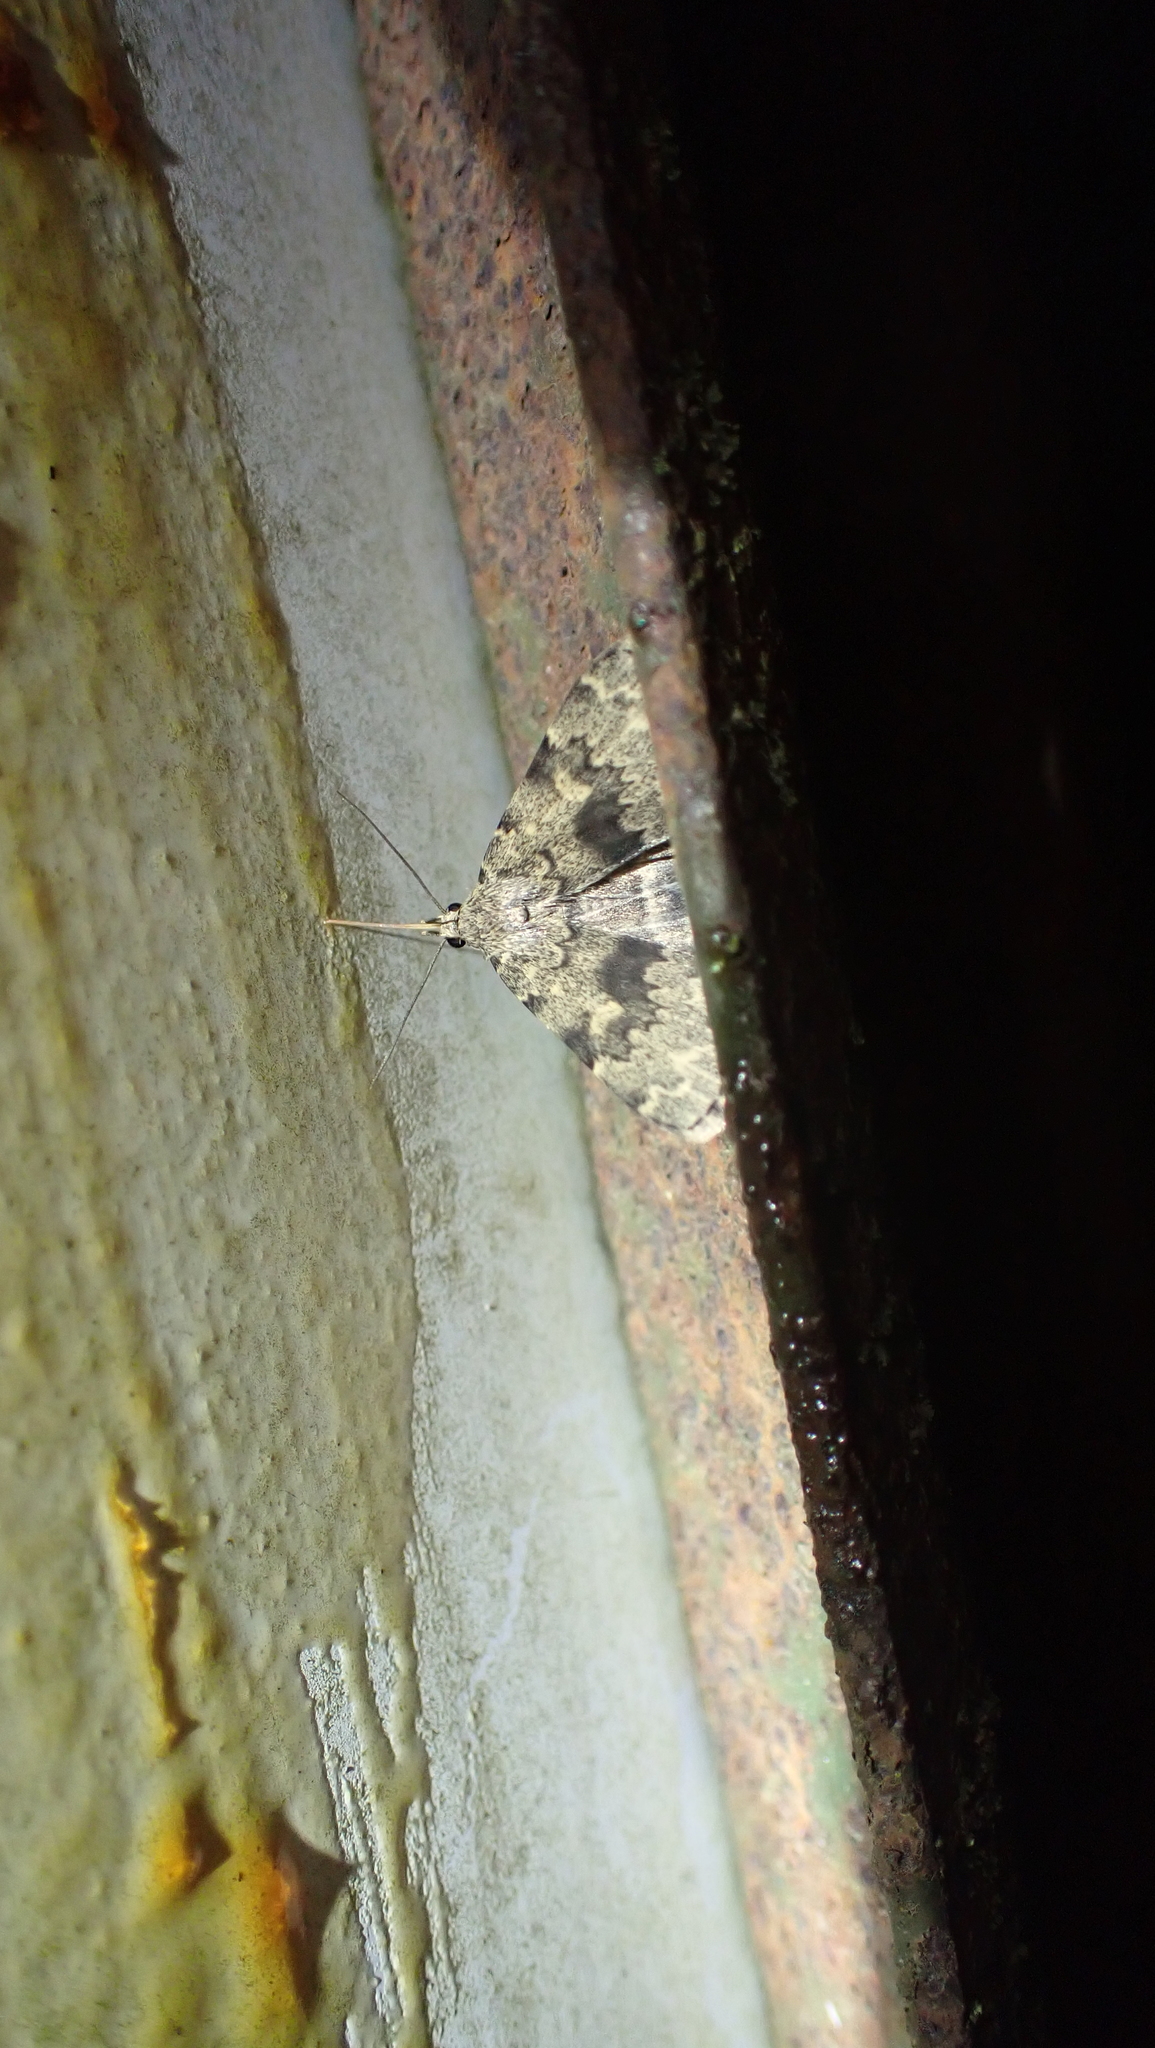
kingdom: Animalia
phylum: Arthropoda
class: Insecta
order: Lepidoptera
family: Erebidae
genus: Idia
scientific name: Idia denticulalis
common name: Toothed idia moth
